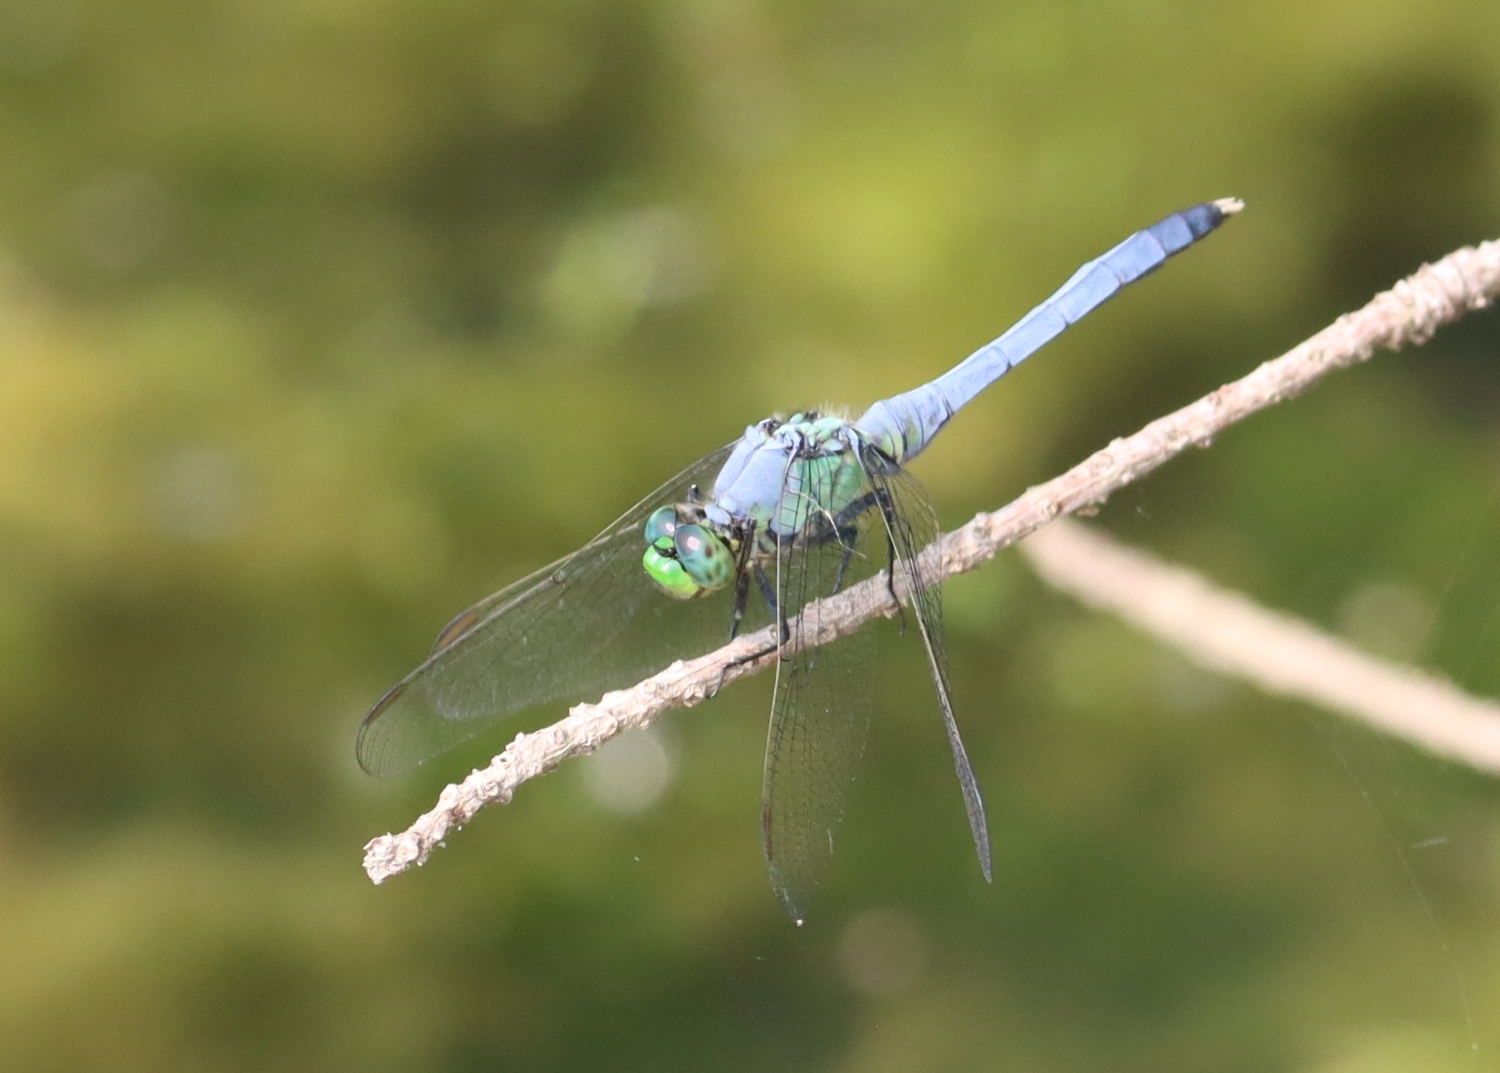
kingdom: Animalia
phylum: Arthropoda
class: Insecta
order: Odonata
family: Libellulidae
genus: Erythemis
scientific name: Erythemis simplicicollis
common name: Eastern pondhawk
